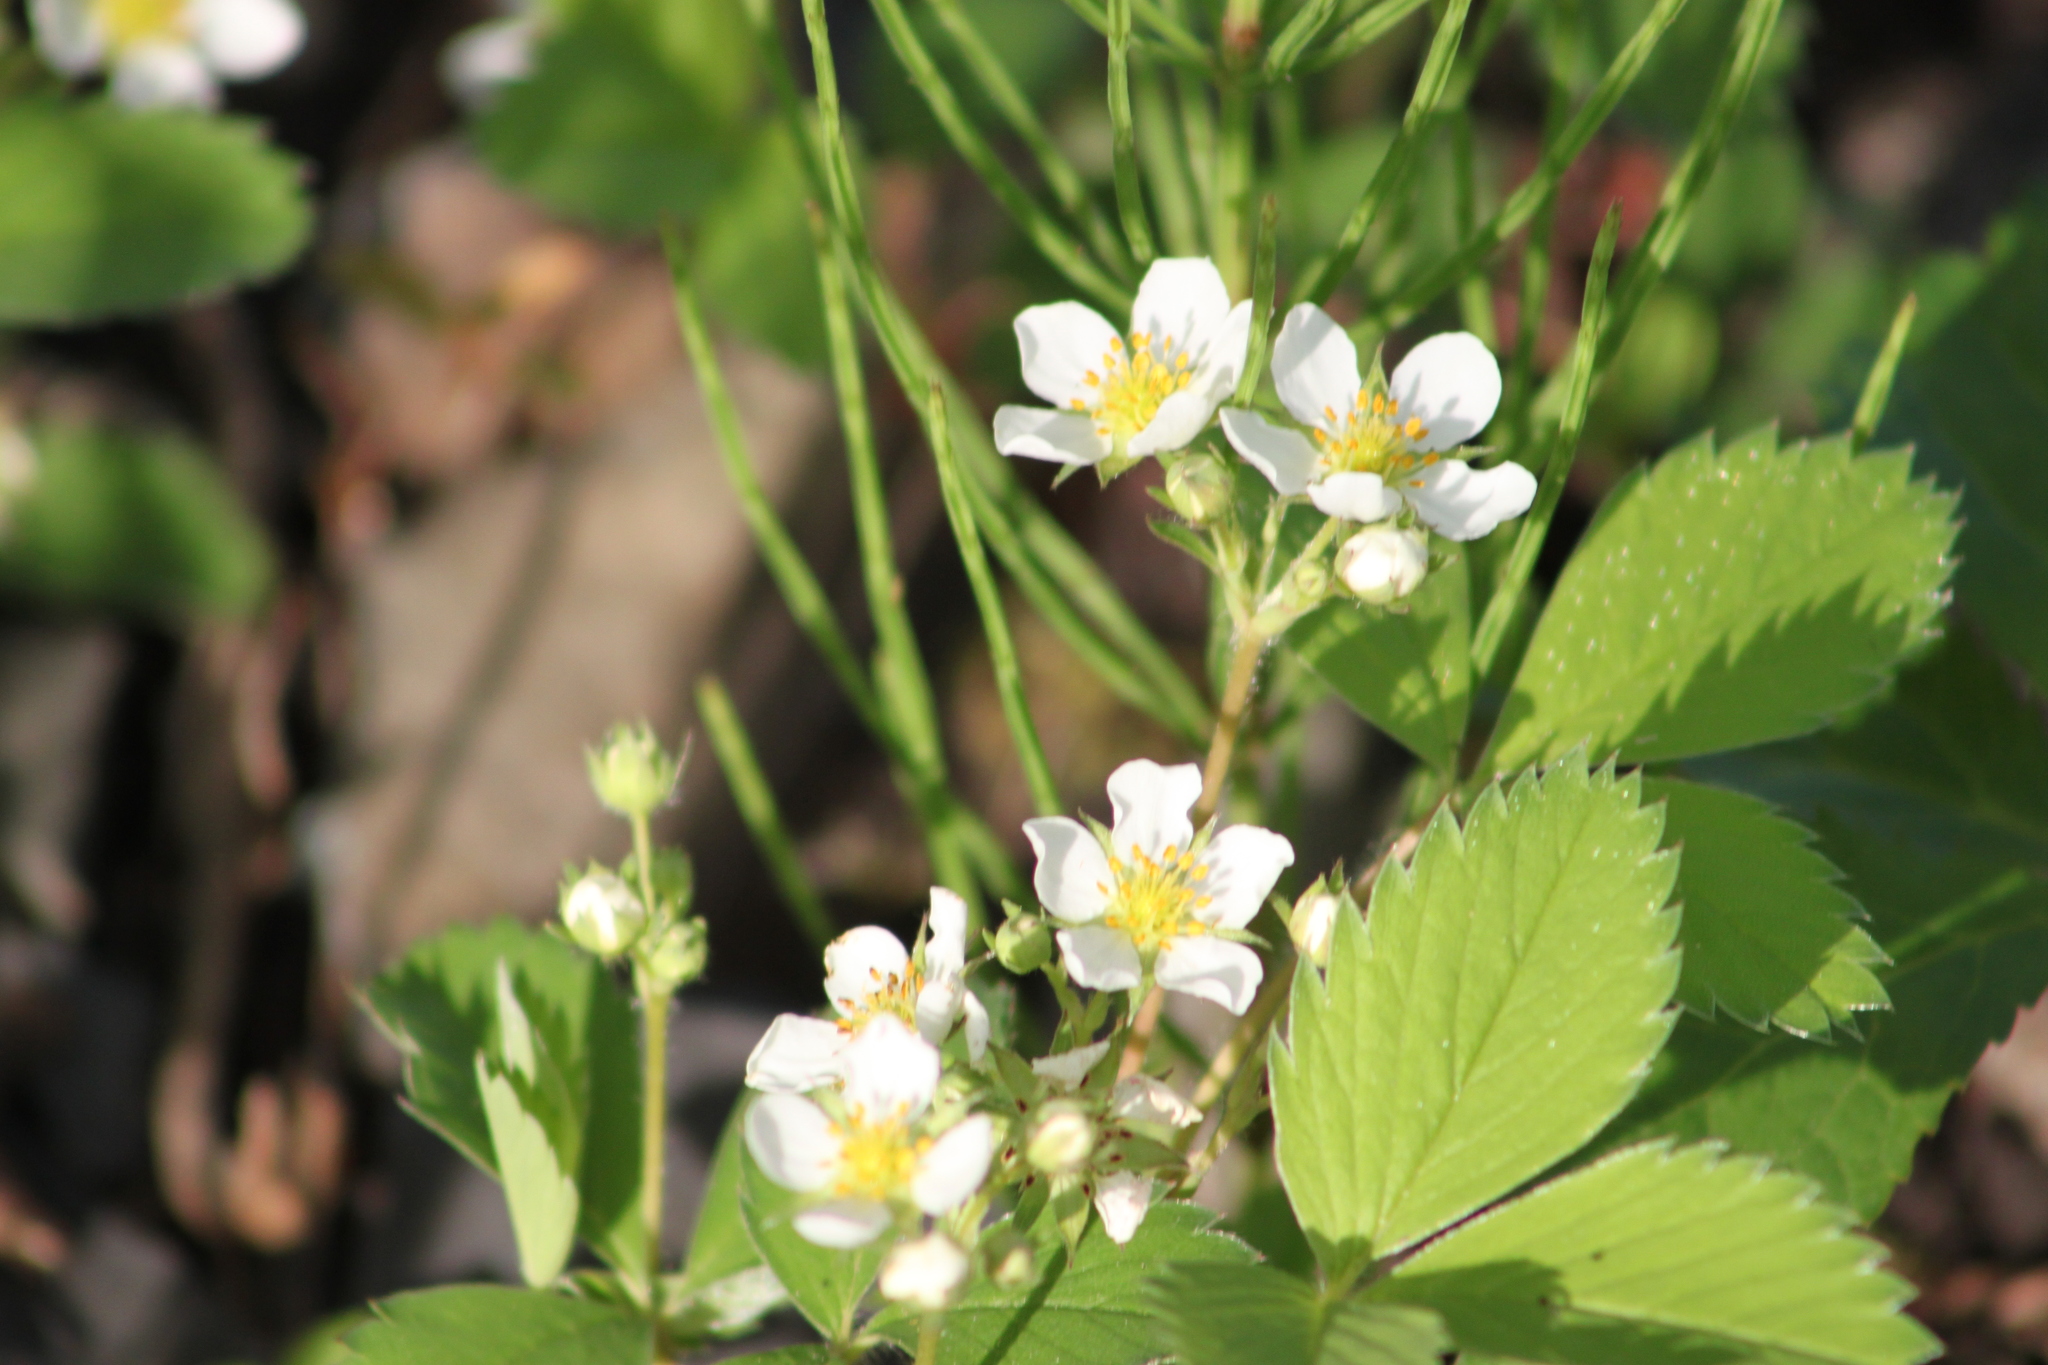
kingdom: Plantae
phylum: Tracheophyta
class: Magnoliopsida
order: Rosales
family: Rosaceae
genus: Fragaria
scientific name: Fragaria virginiana
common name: Thickleaved wild strawberry
